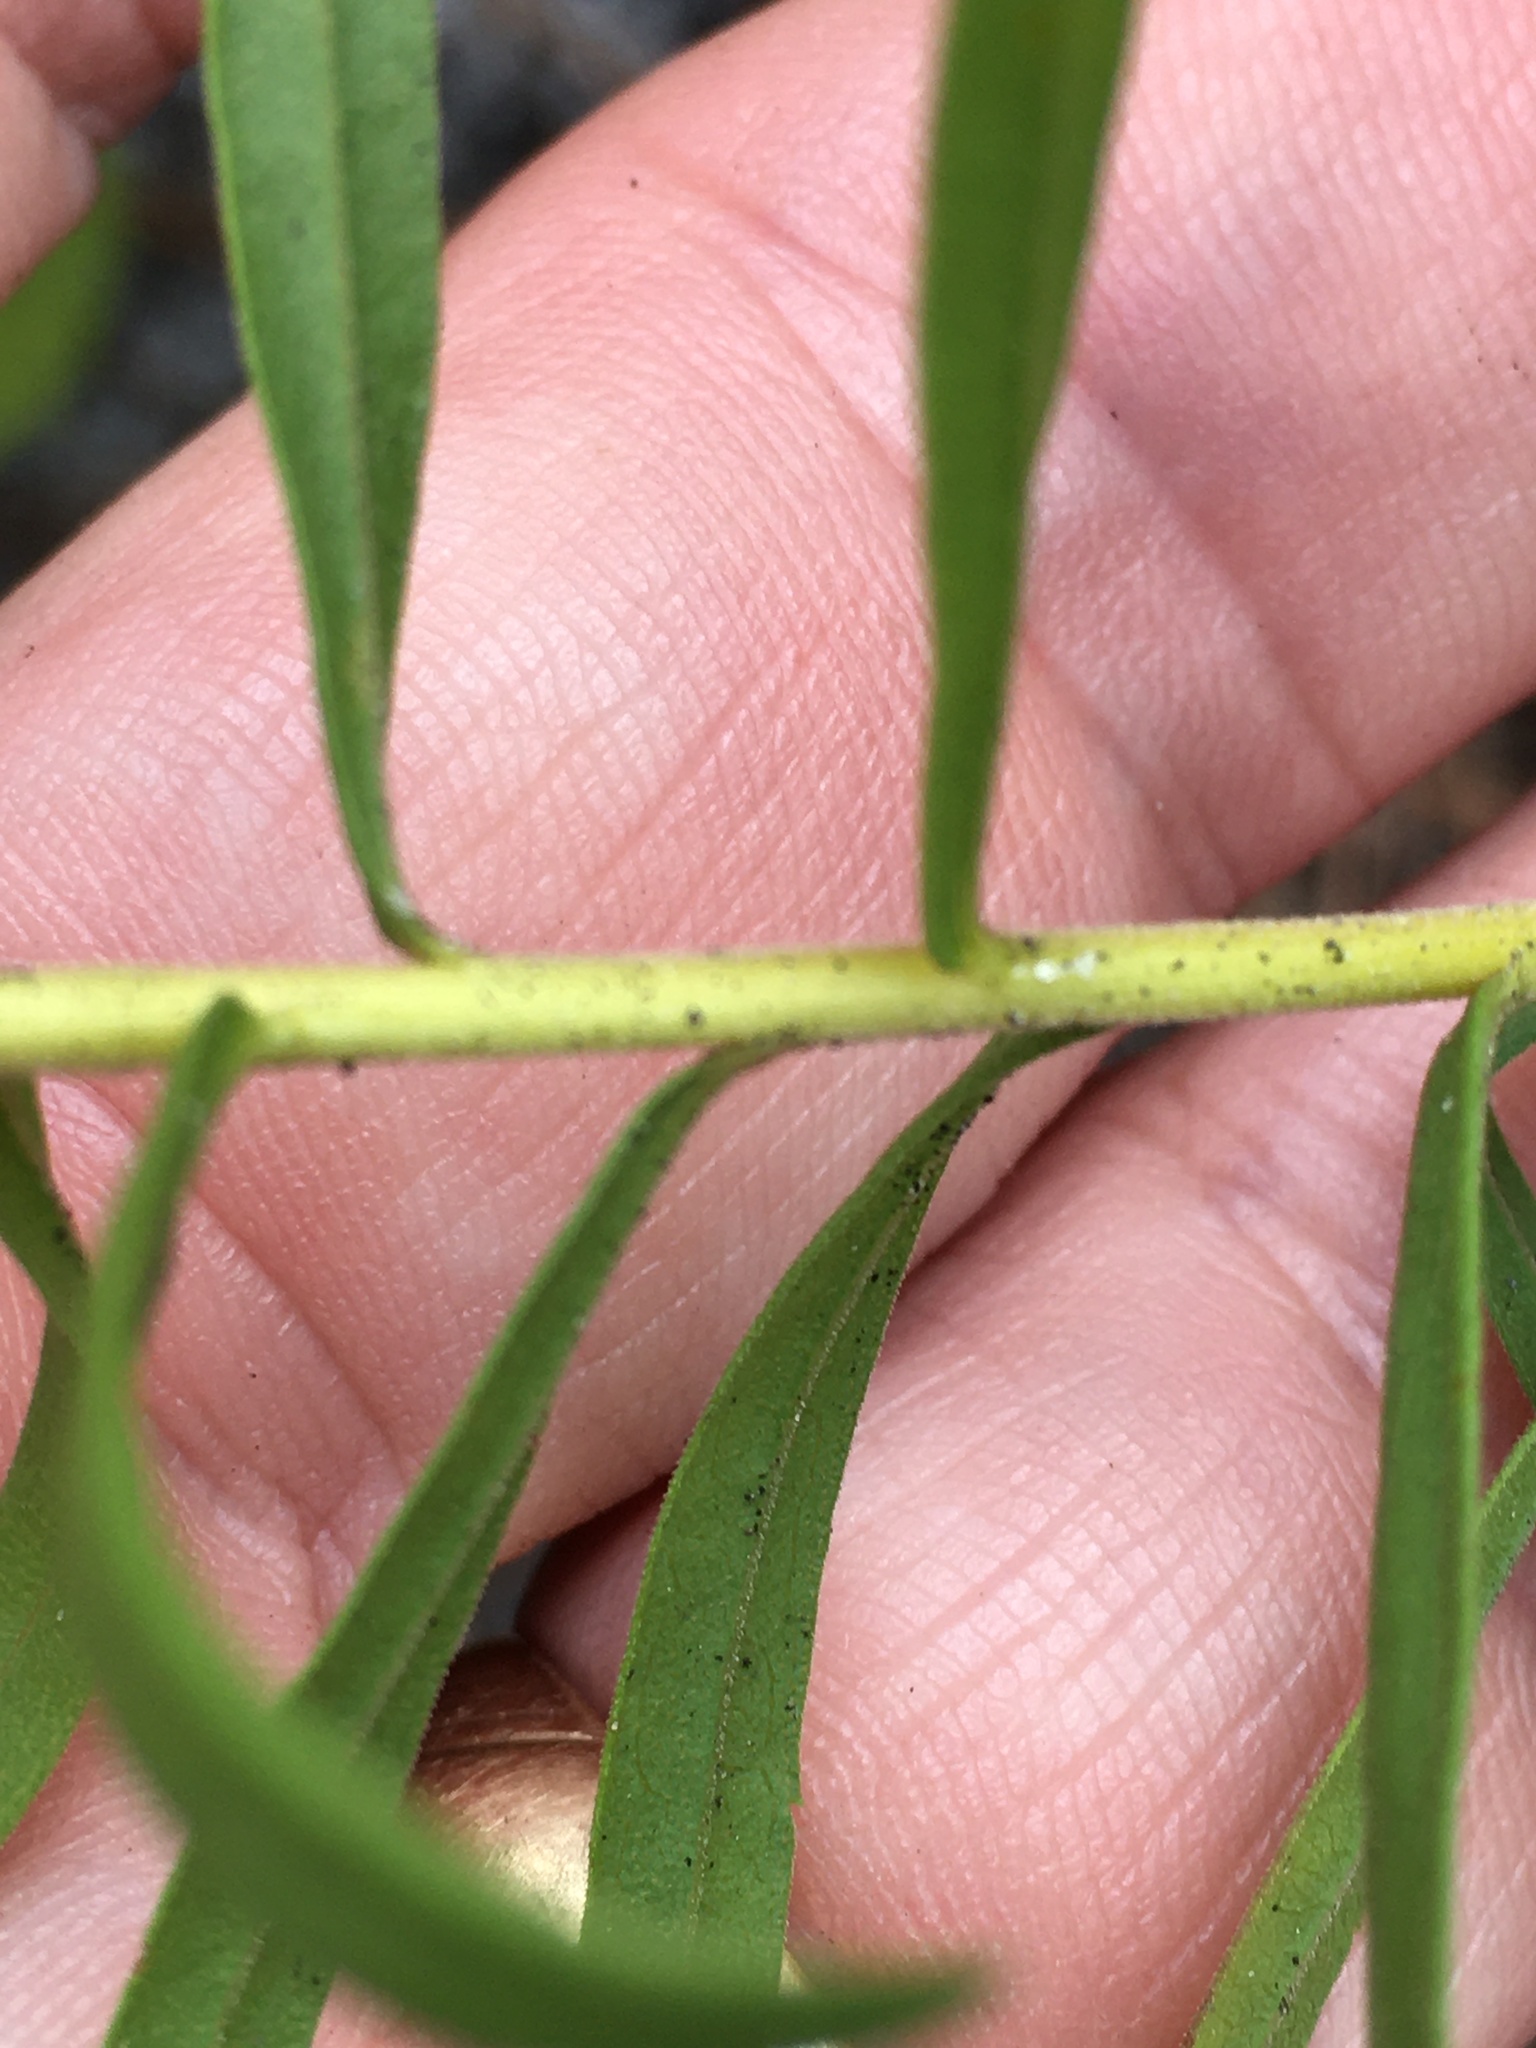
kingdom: Plantae
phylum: Tracheophyta
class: Magnoliopsida
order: Asterales
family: Asteraceae
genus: Solidago
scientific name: Solidago tortifolia
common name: Twisted-leaf goldenrod
